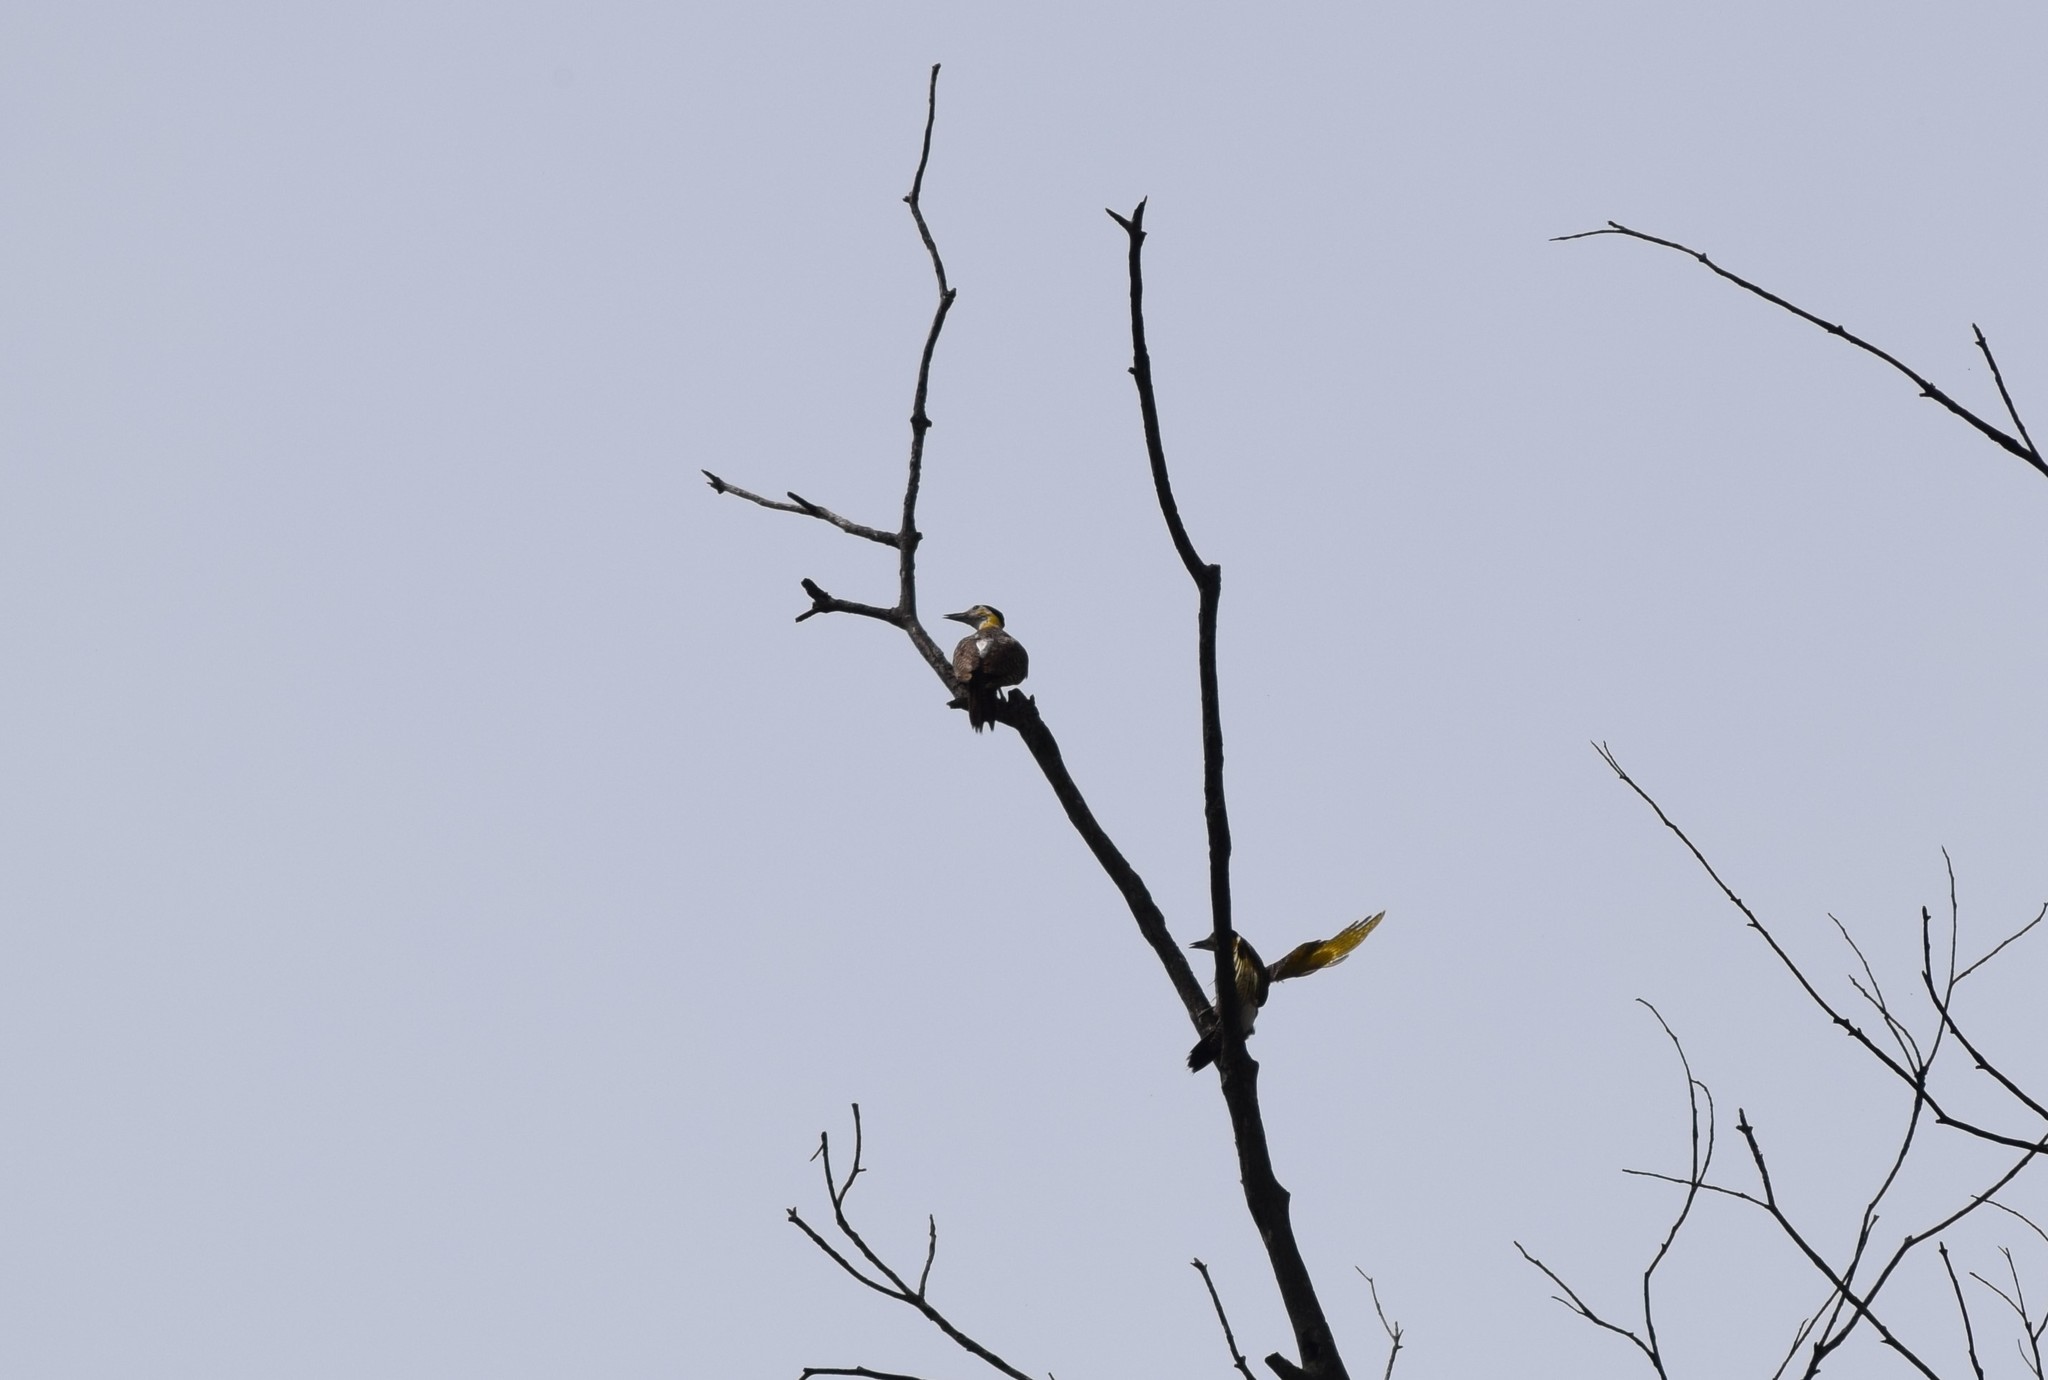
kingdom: Animalia
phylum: Chordata
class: Aves
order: Piciformes
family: Picidae
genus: Colaptes
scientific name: Colaptes campestris
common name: Campo flicker
